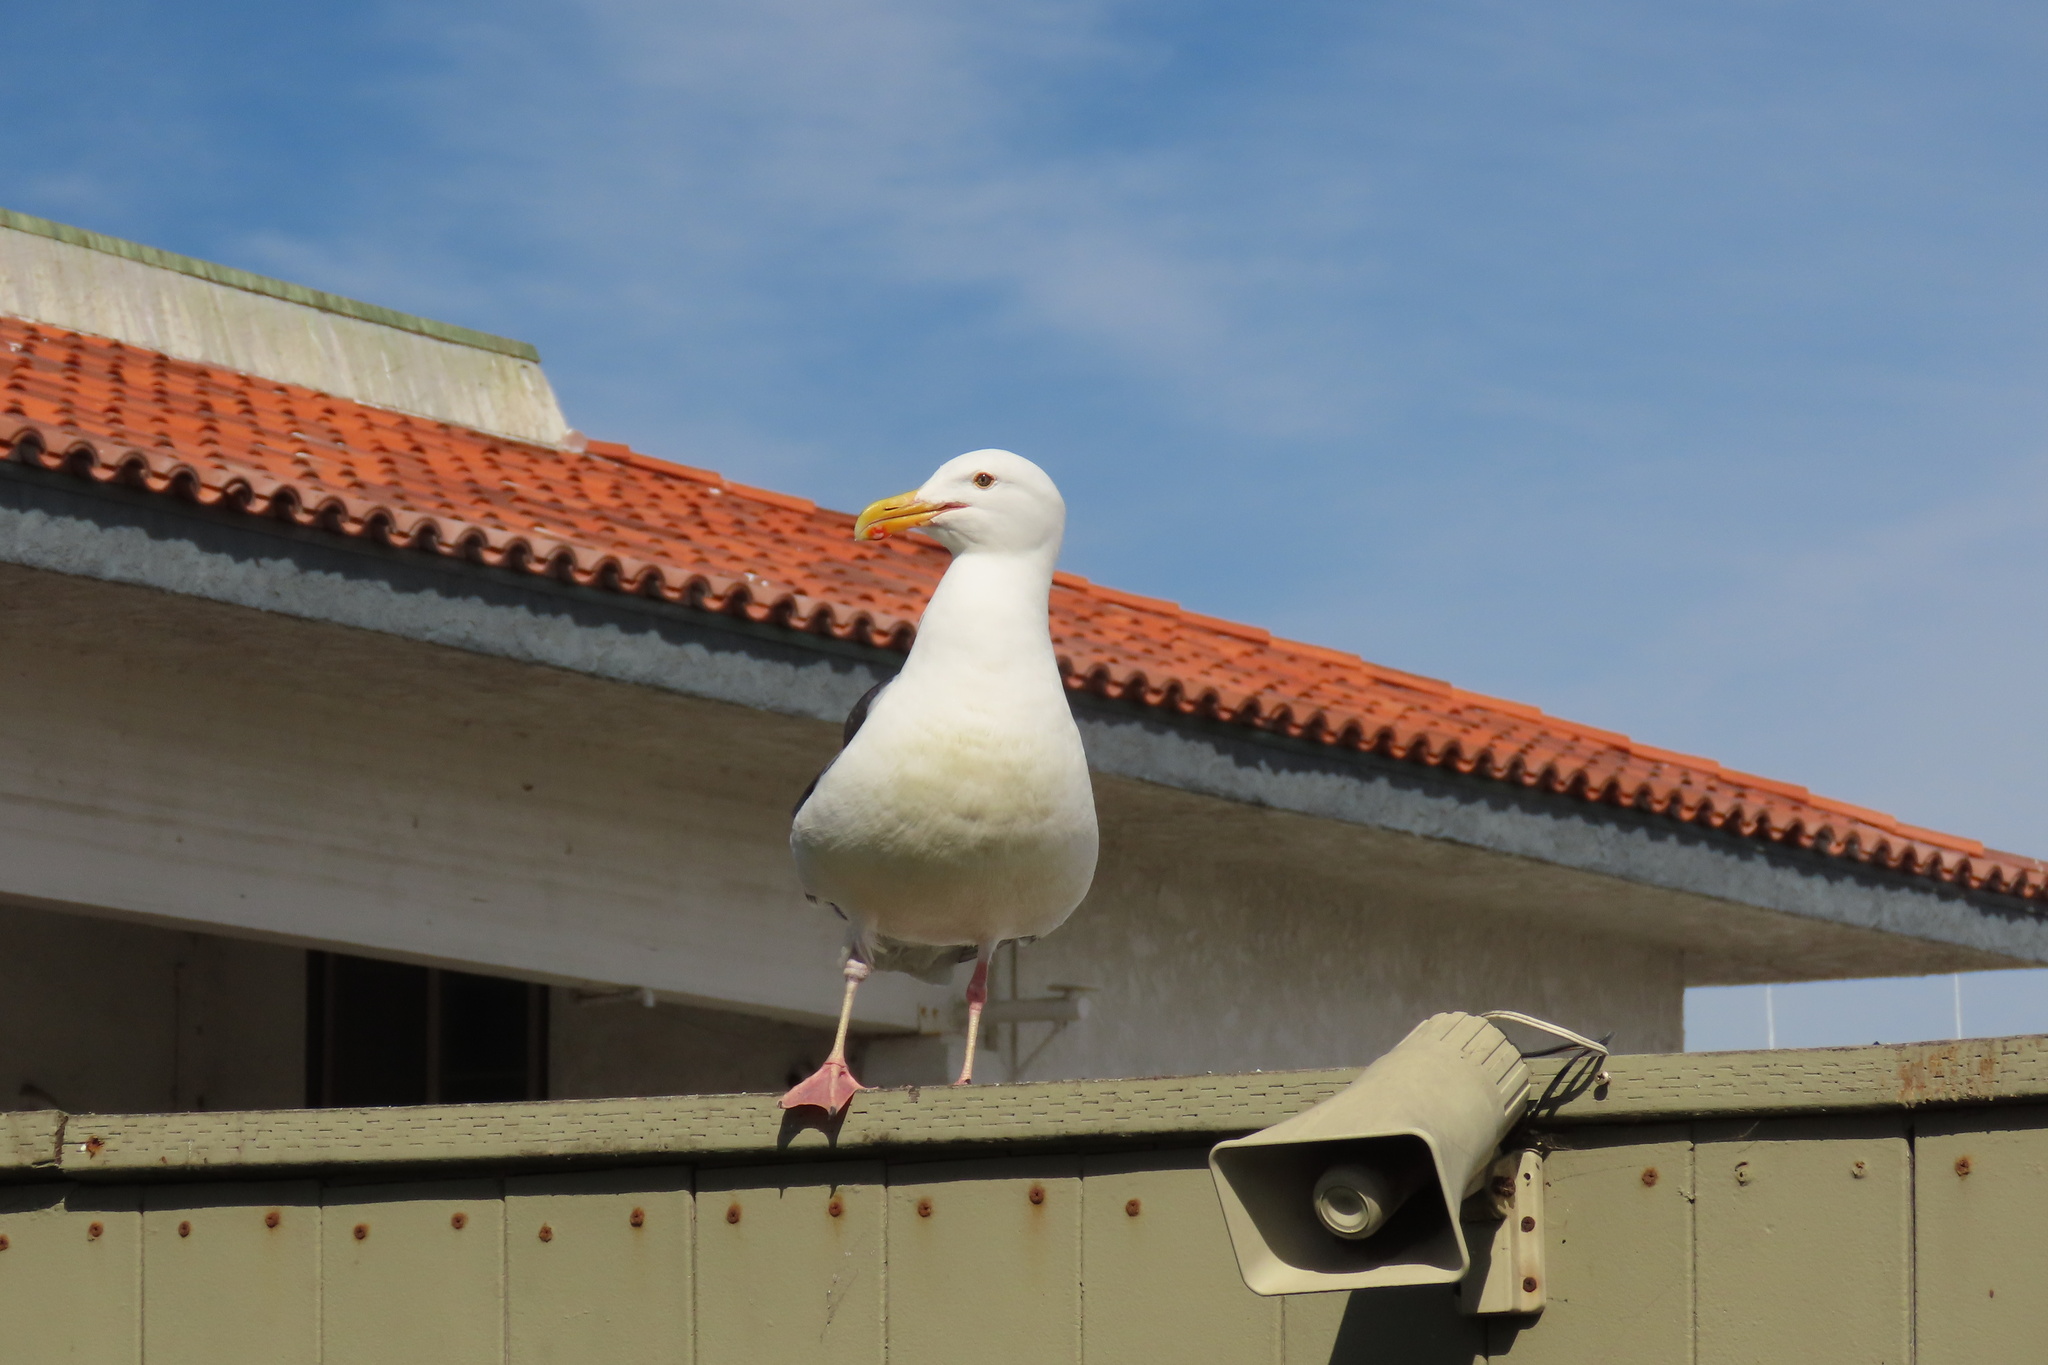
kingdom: Animalia
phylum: Chordata
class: Aves
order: Charadriiformes
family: Laridae
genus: Larus
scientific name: Larus occidentalis
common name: Western gull
